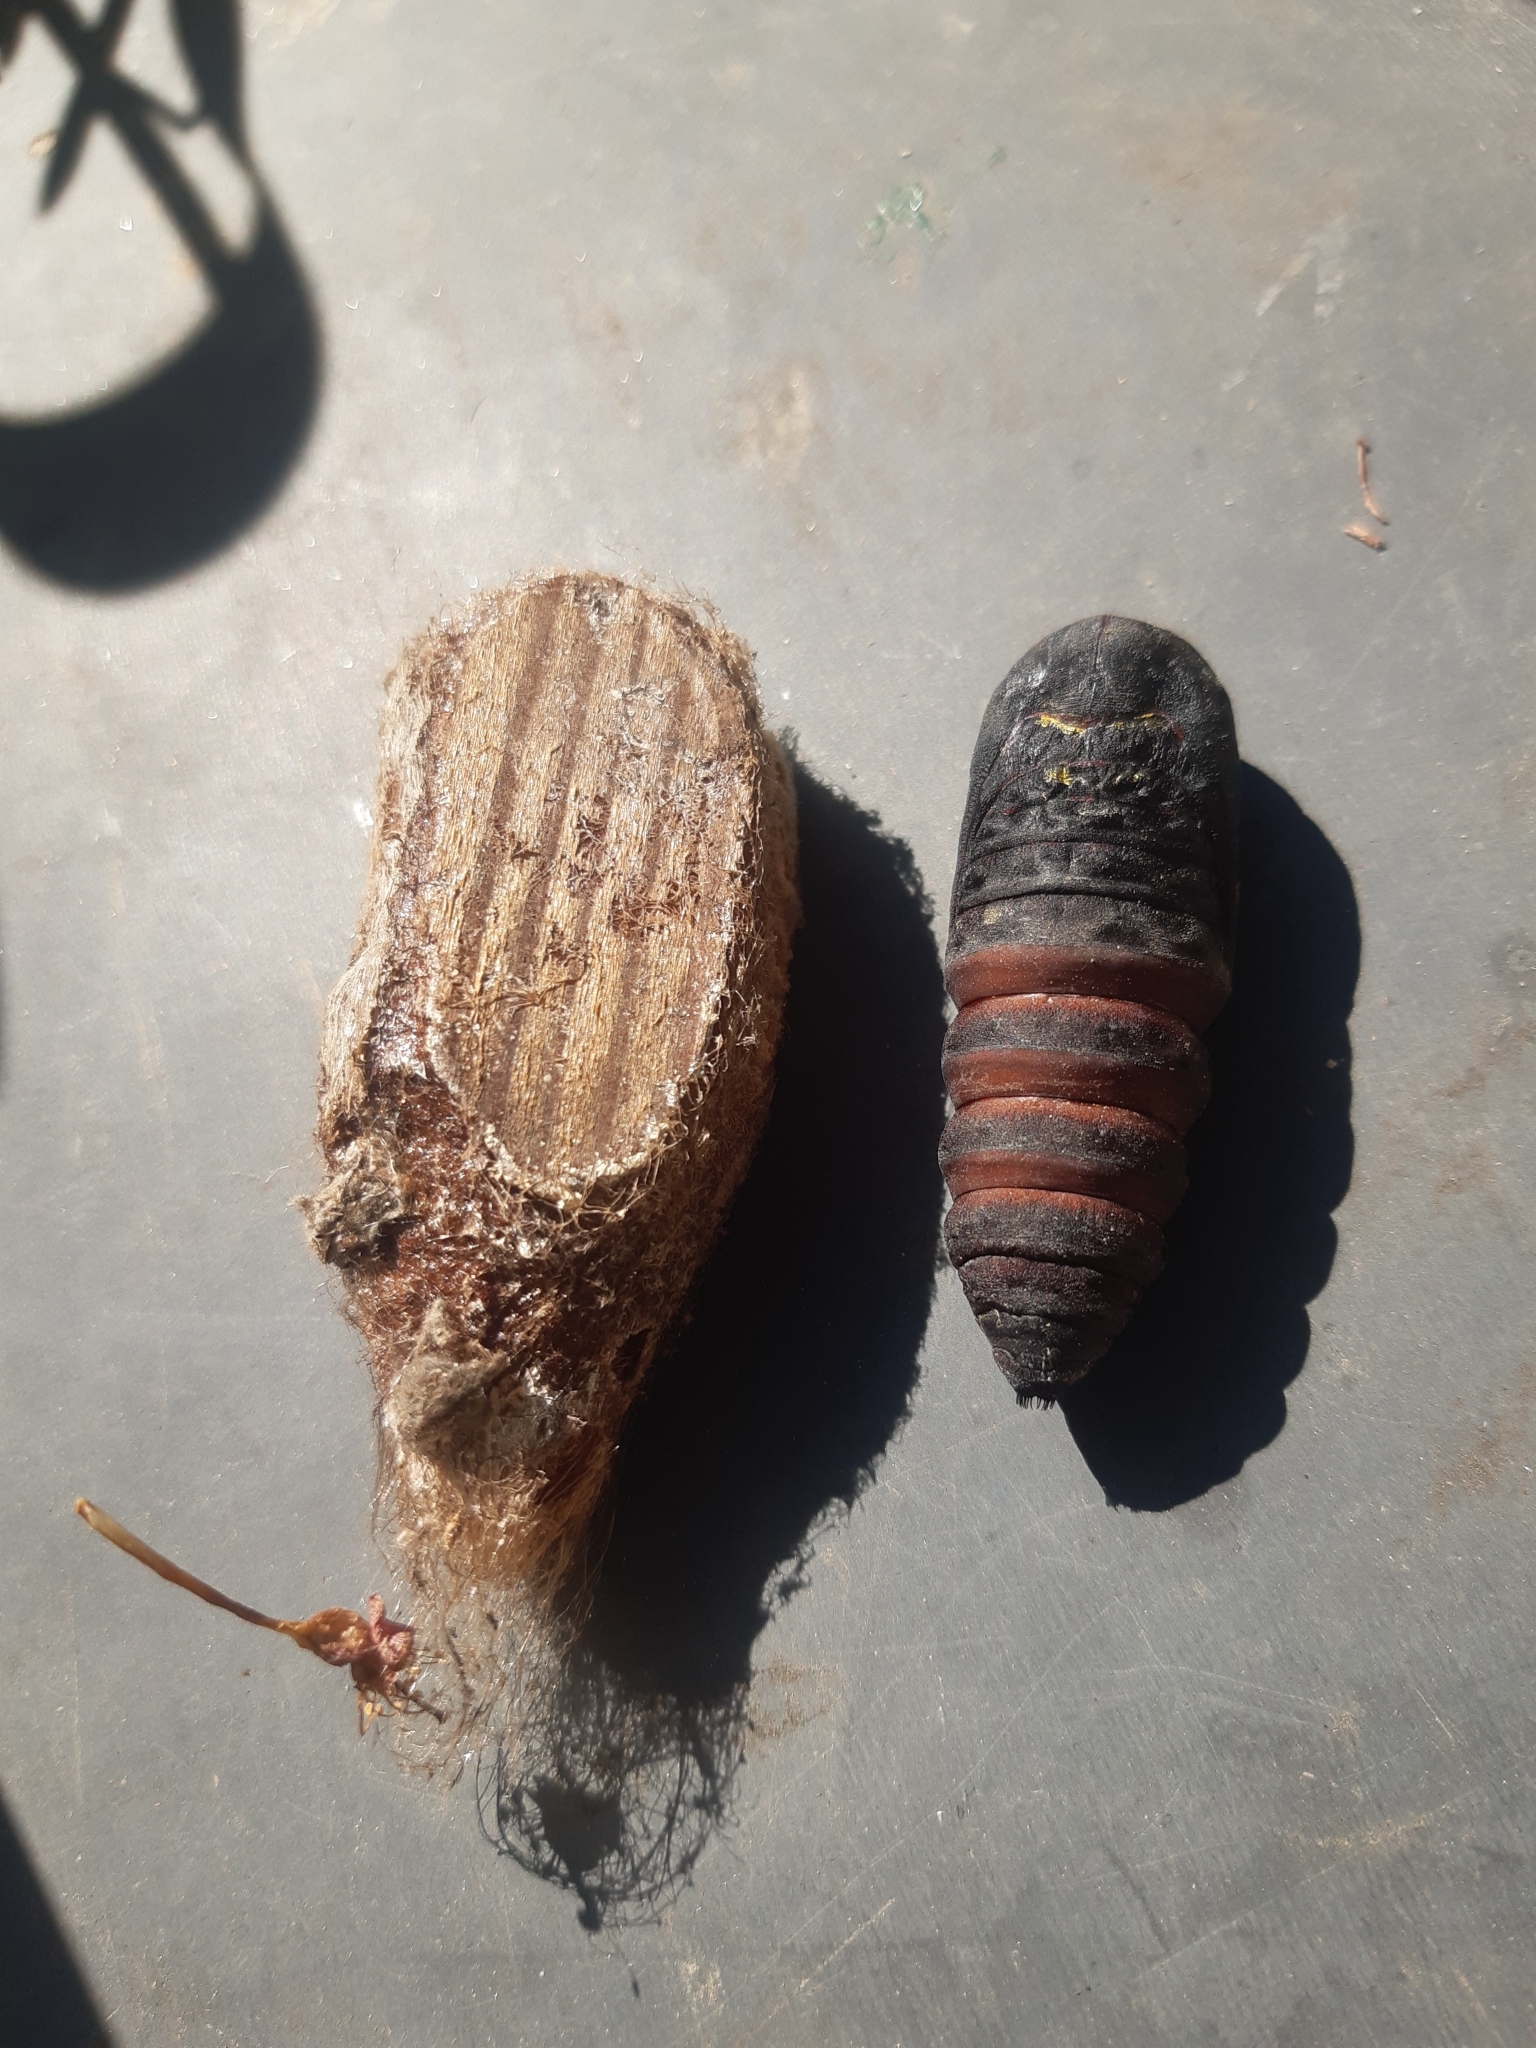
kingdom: Animalia
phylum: Arthropoda
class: Insecta
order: Lepidoptera
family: Saturniidae
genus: Saturnia
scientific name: Saturnia pyri
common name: Great peacock moth
